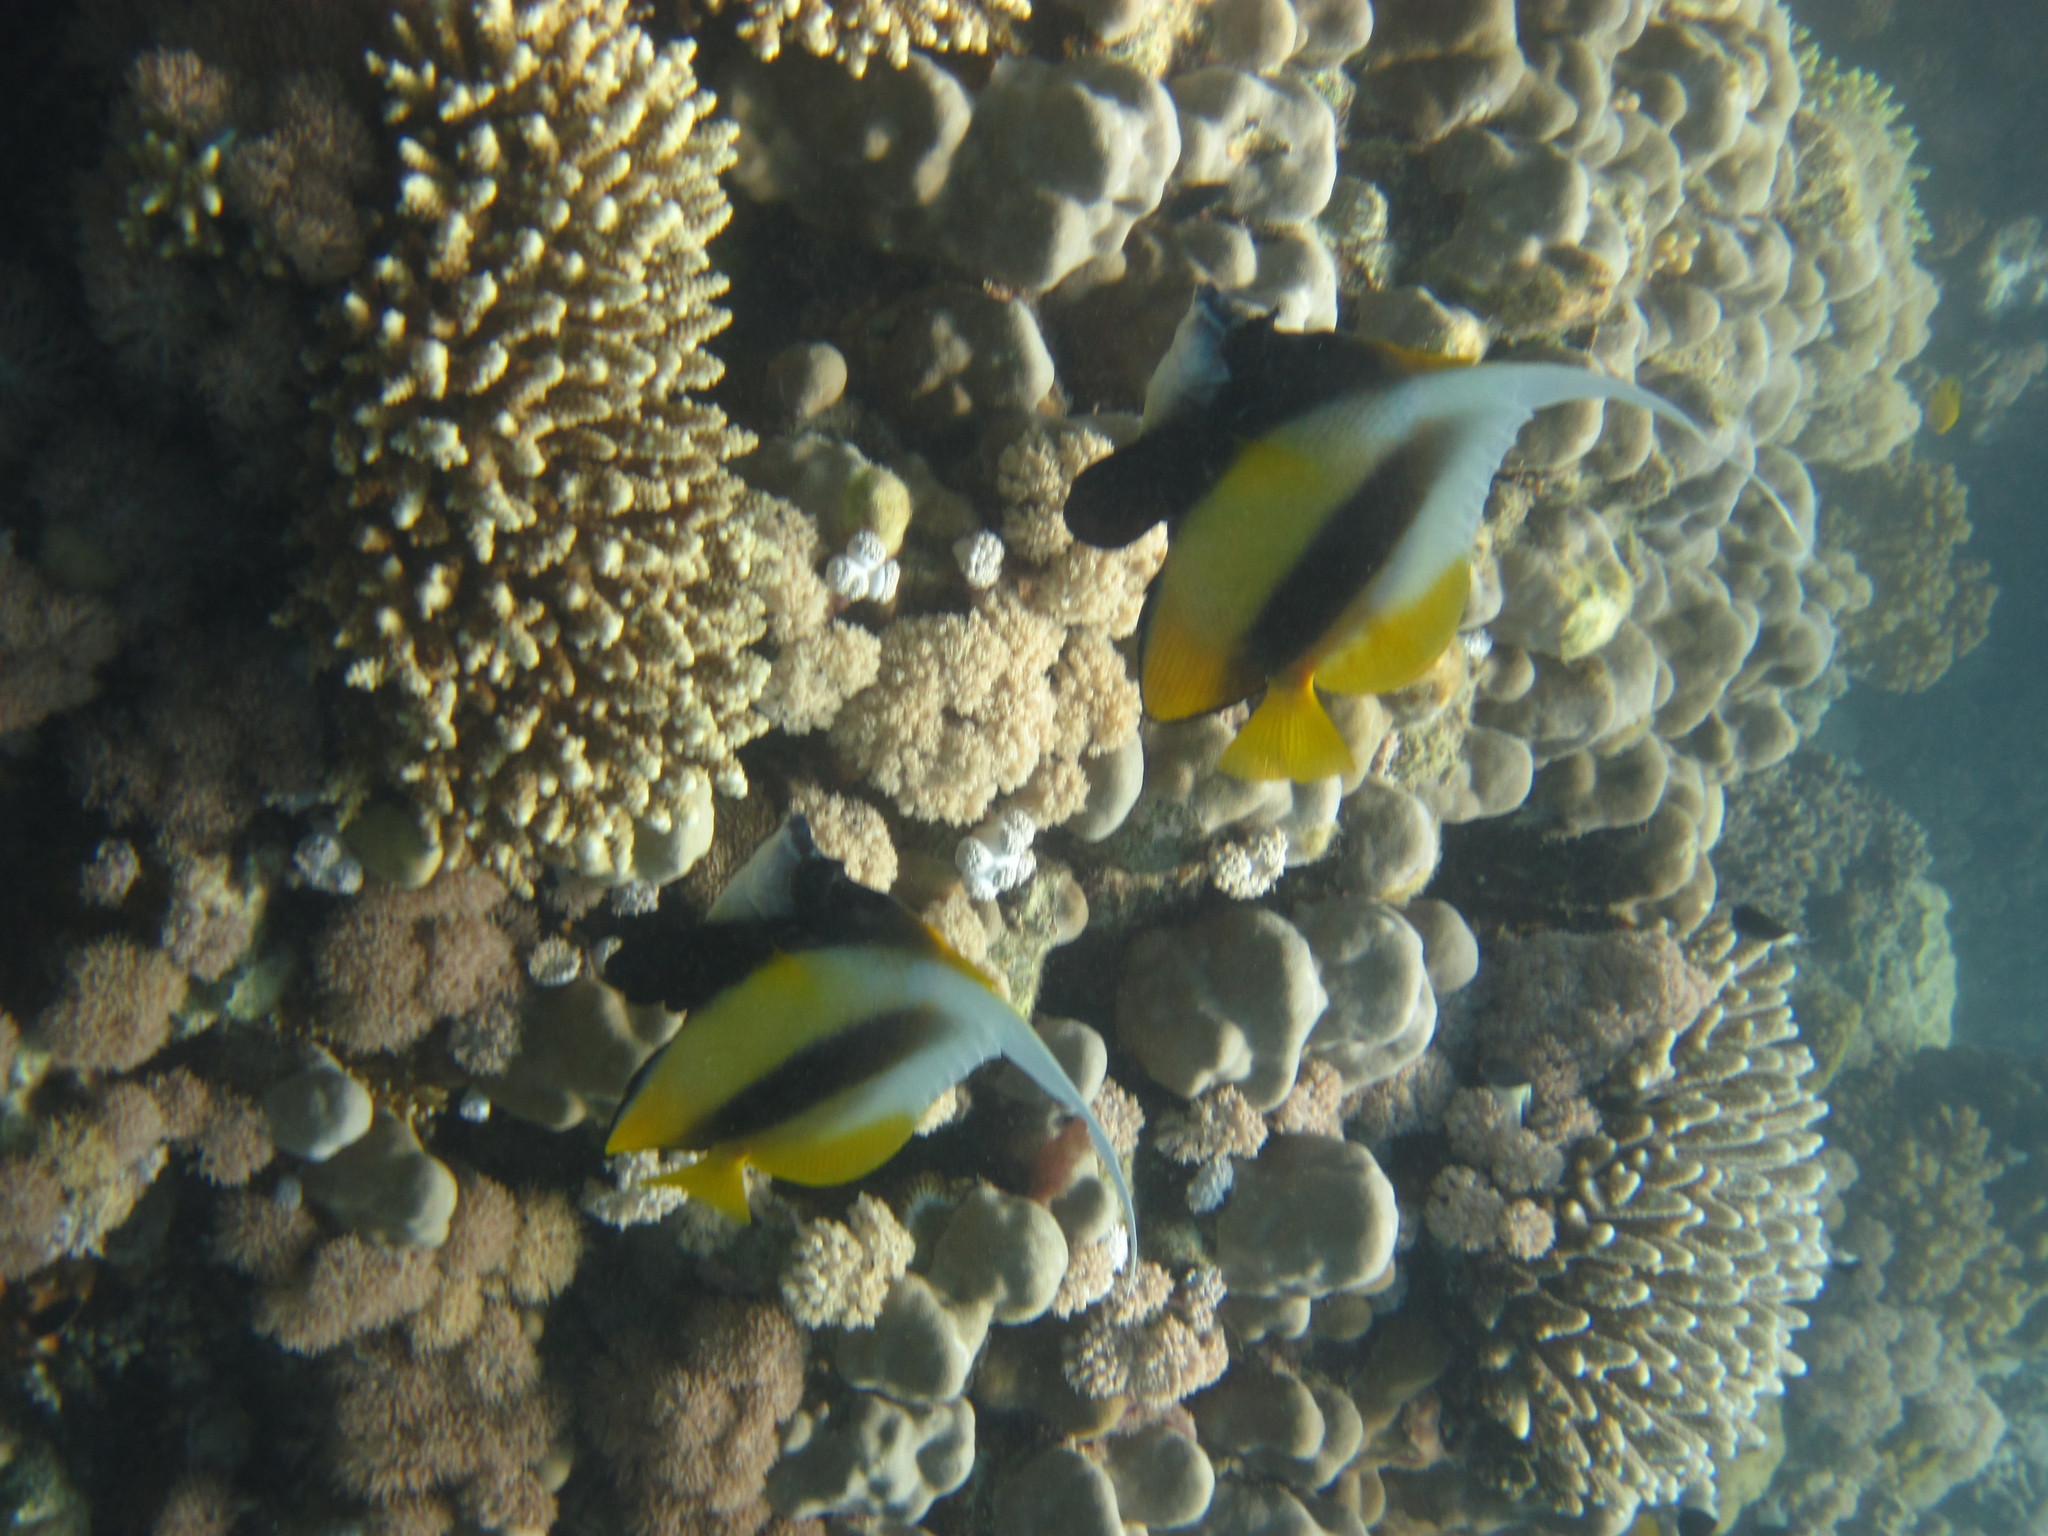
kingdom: Animalia
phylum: Chordata
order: Perciformes
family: Chaetodontidae
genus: Heniochus
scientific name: Heniochus intermedius
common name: Red sea bannerfish
